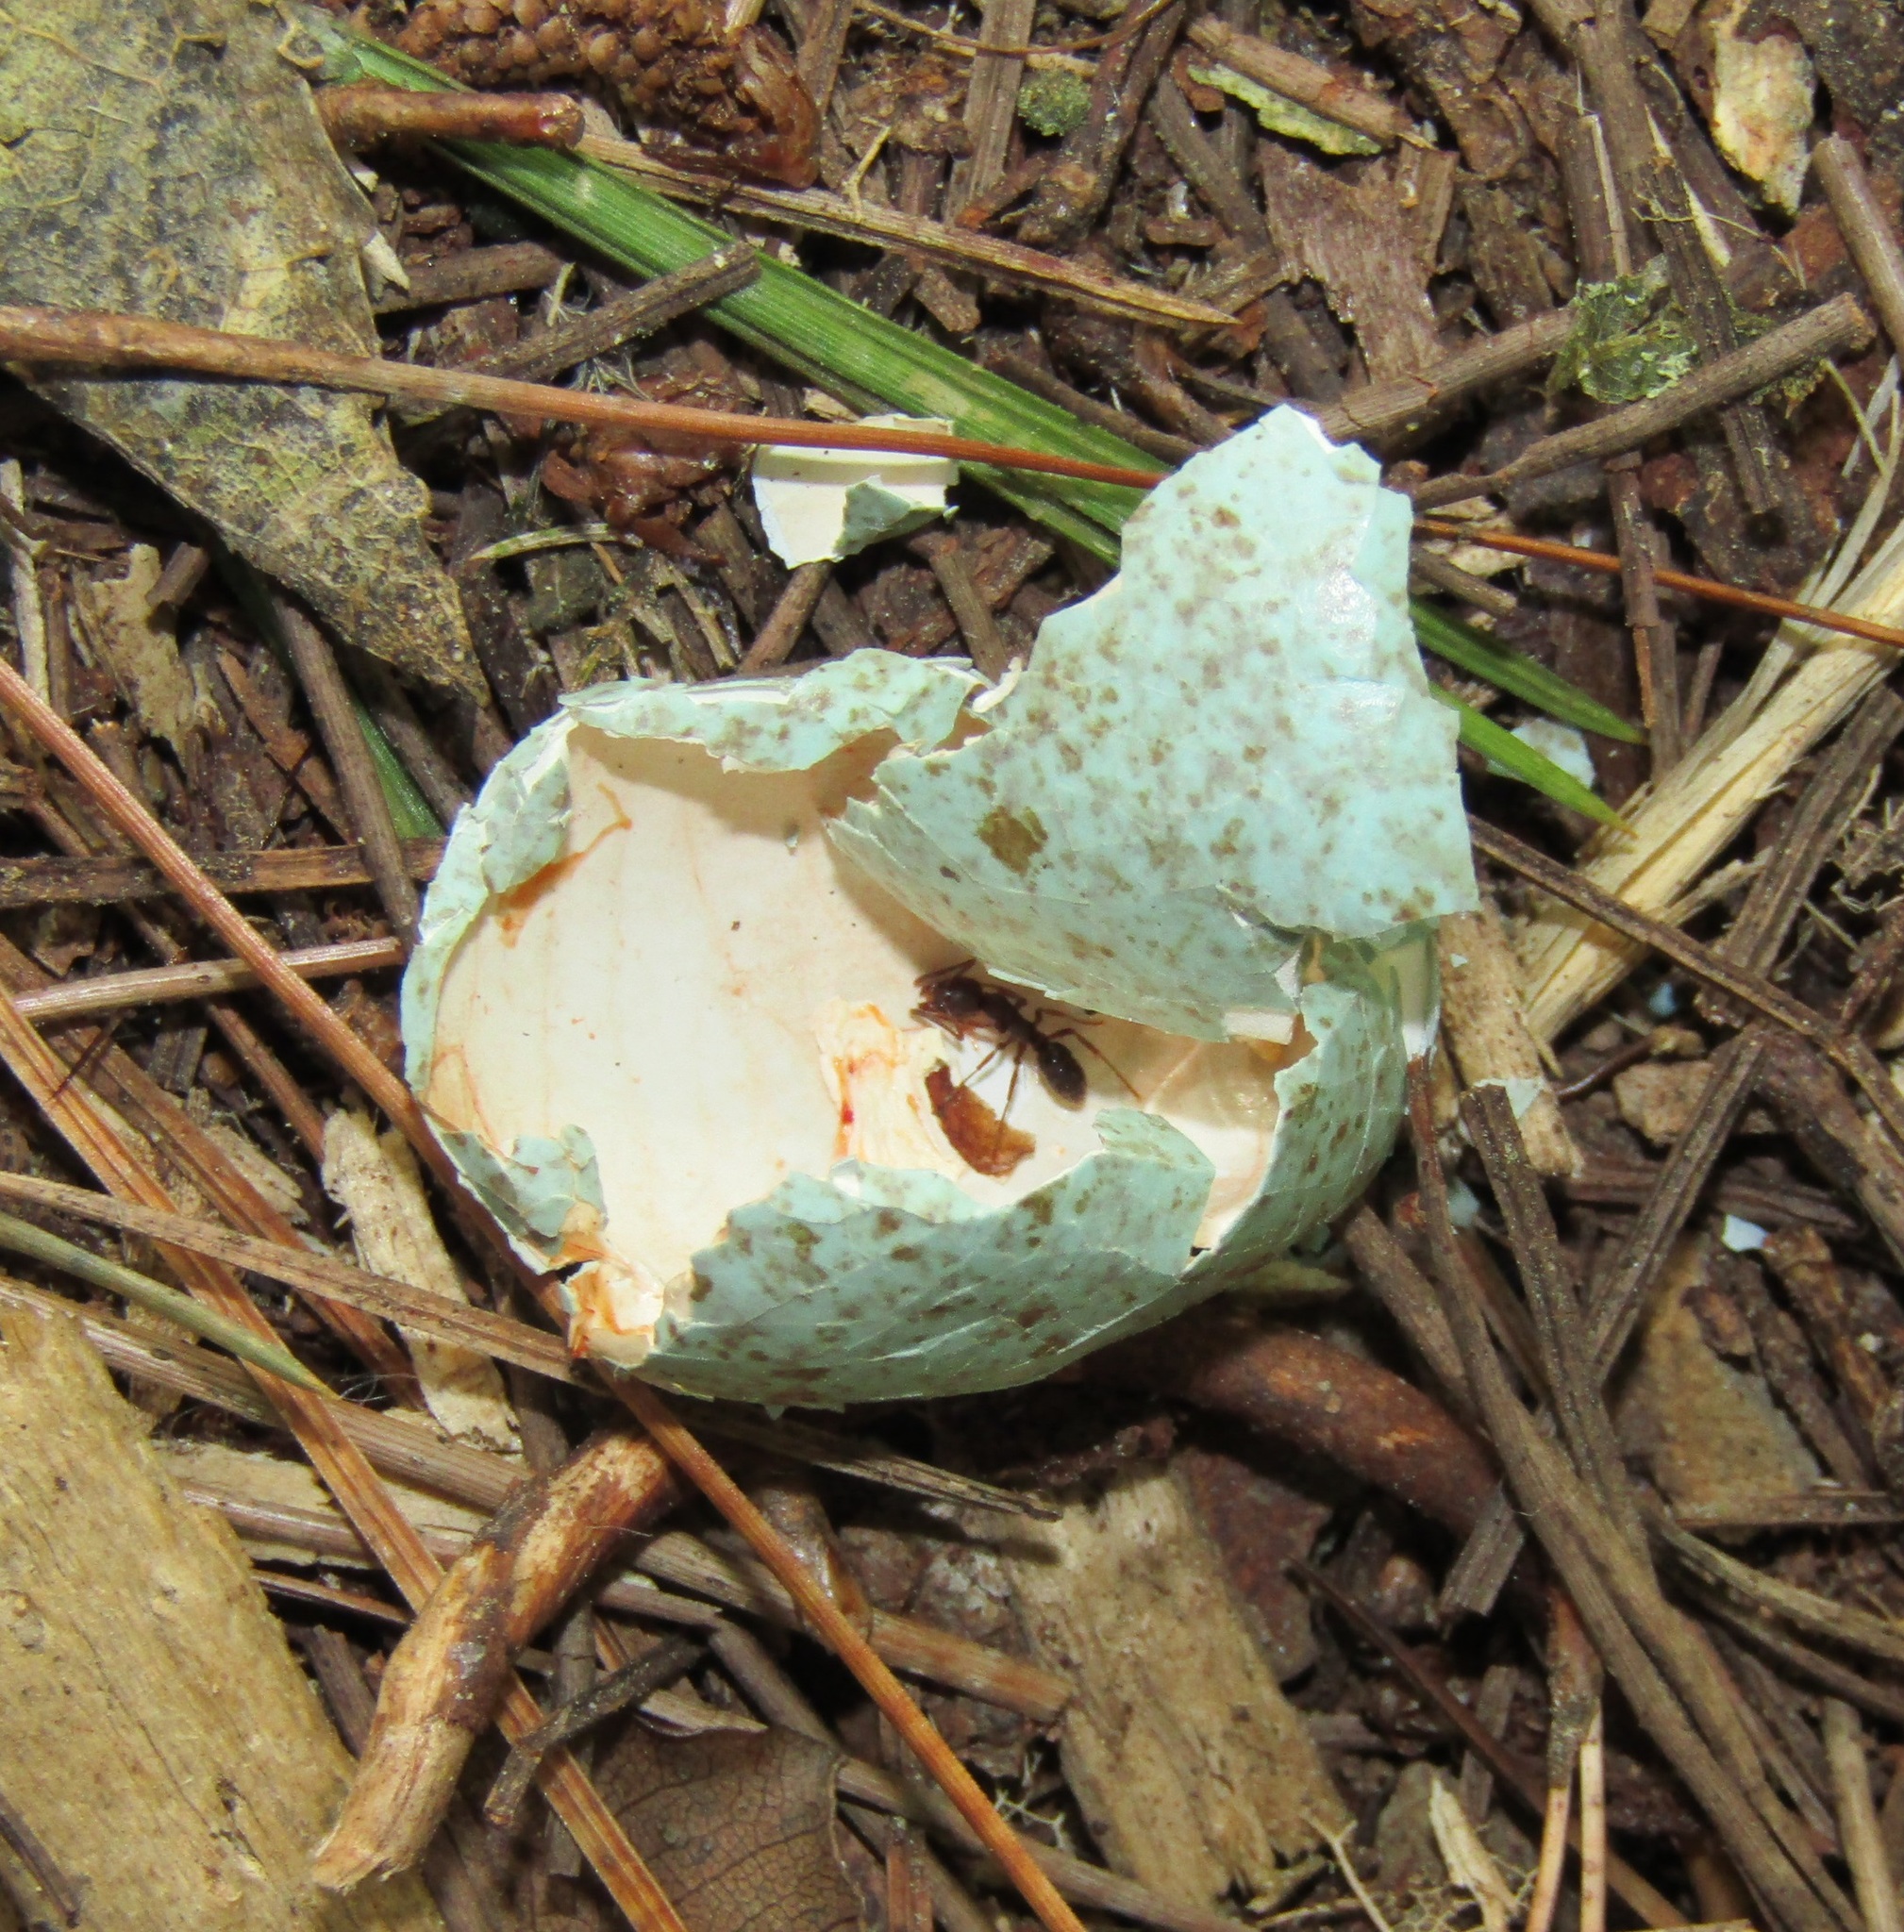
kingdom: Animalia
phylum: Chordata
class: Aves
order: Passeriformes
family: Turdidae
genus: Turdus
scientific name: Turdus merula
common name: Common blackbird
